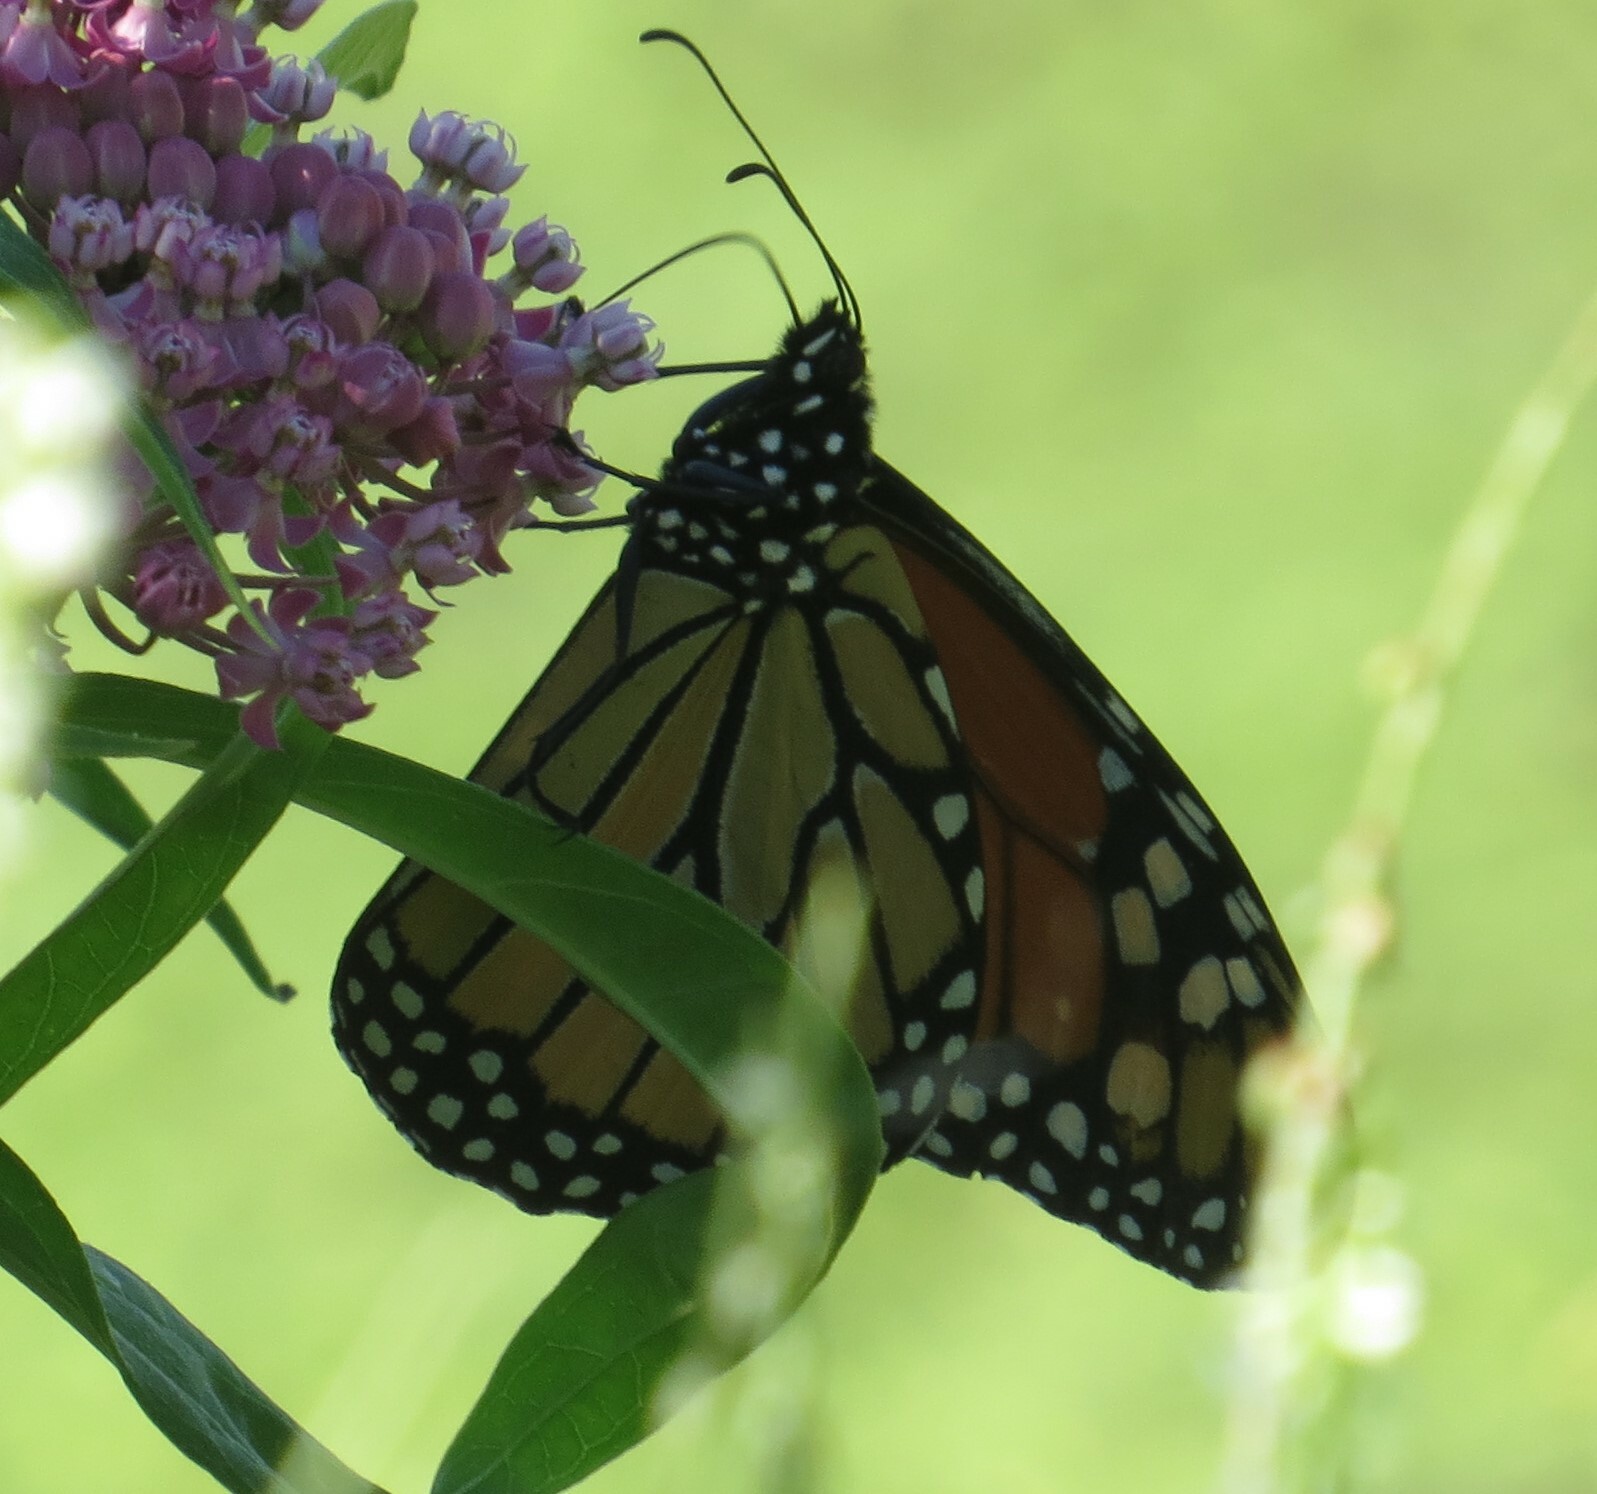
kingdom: Animalia
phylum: Arthropoda
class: Insecta
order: Lepidoptera
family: Nymphalidae
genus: Danaus
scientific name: Danaus plexippus
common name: Monarch
